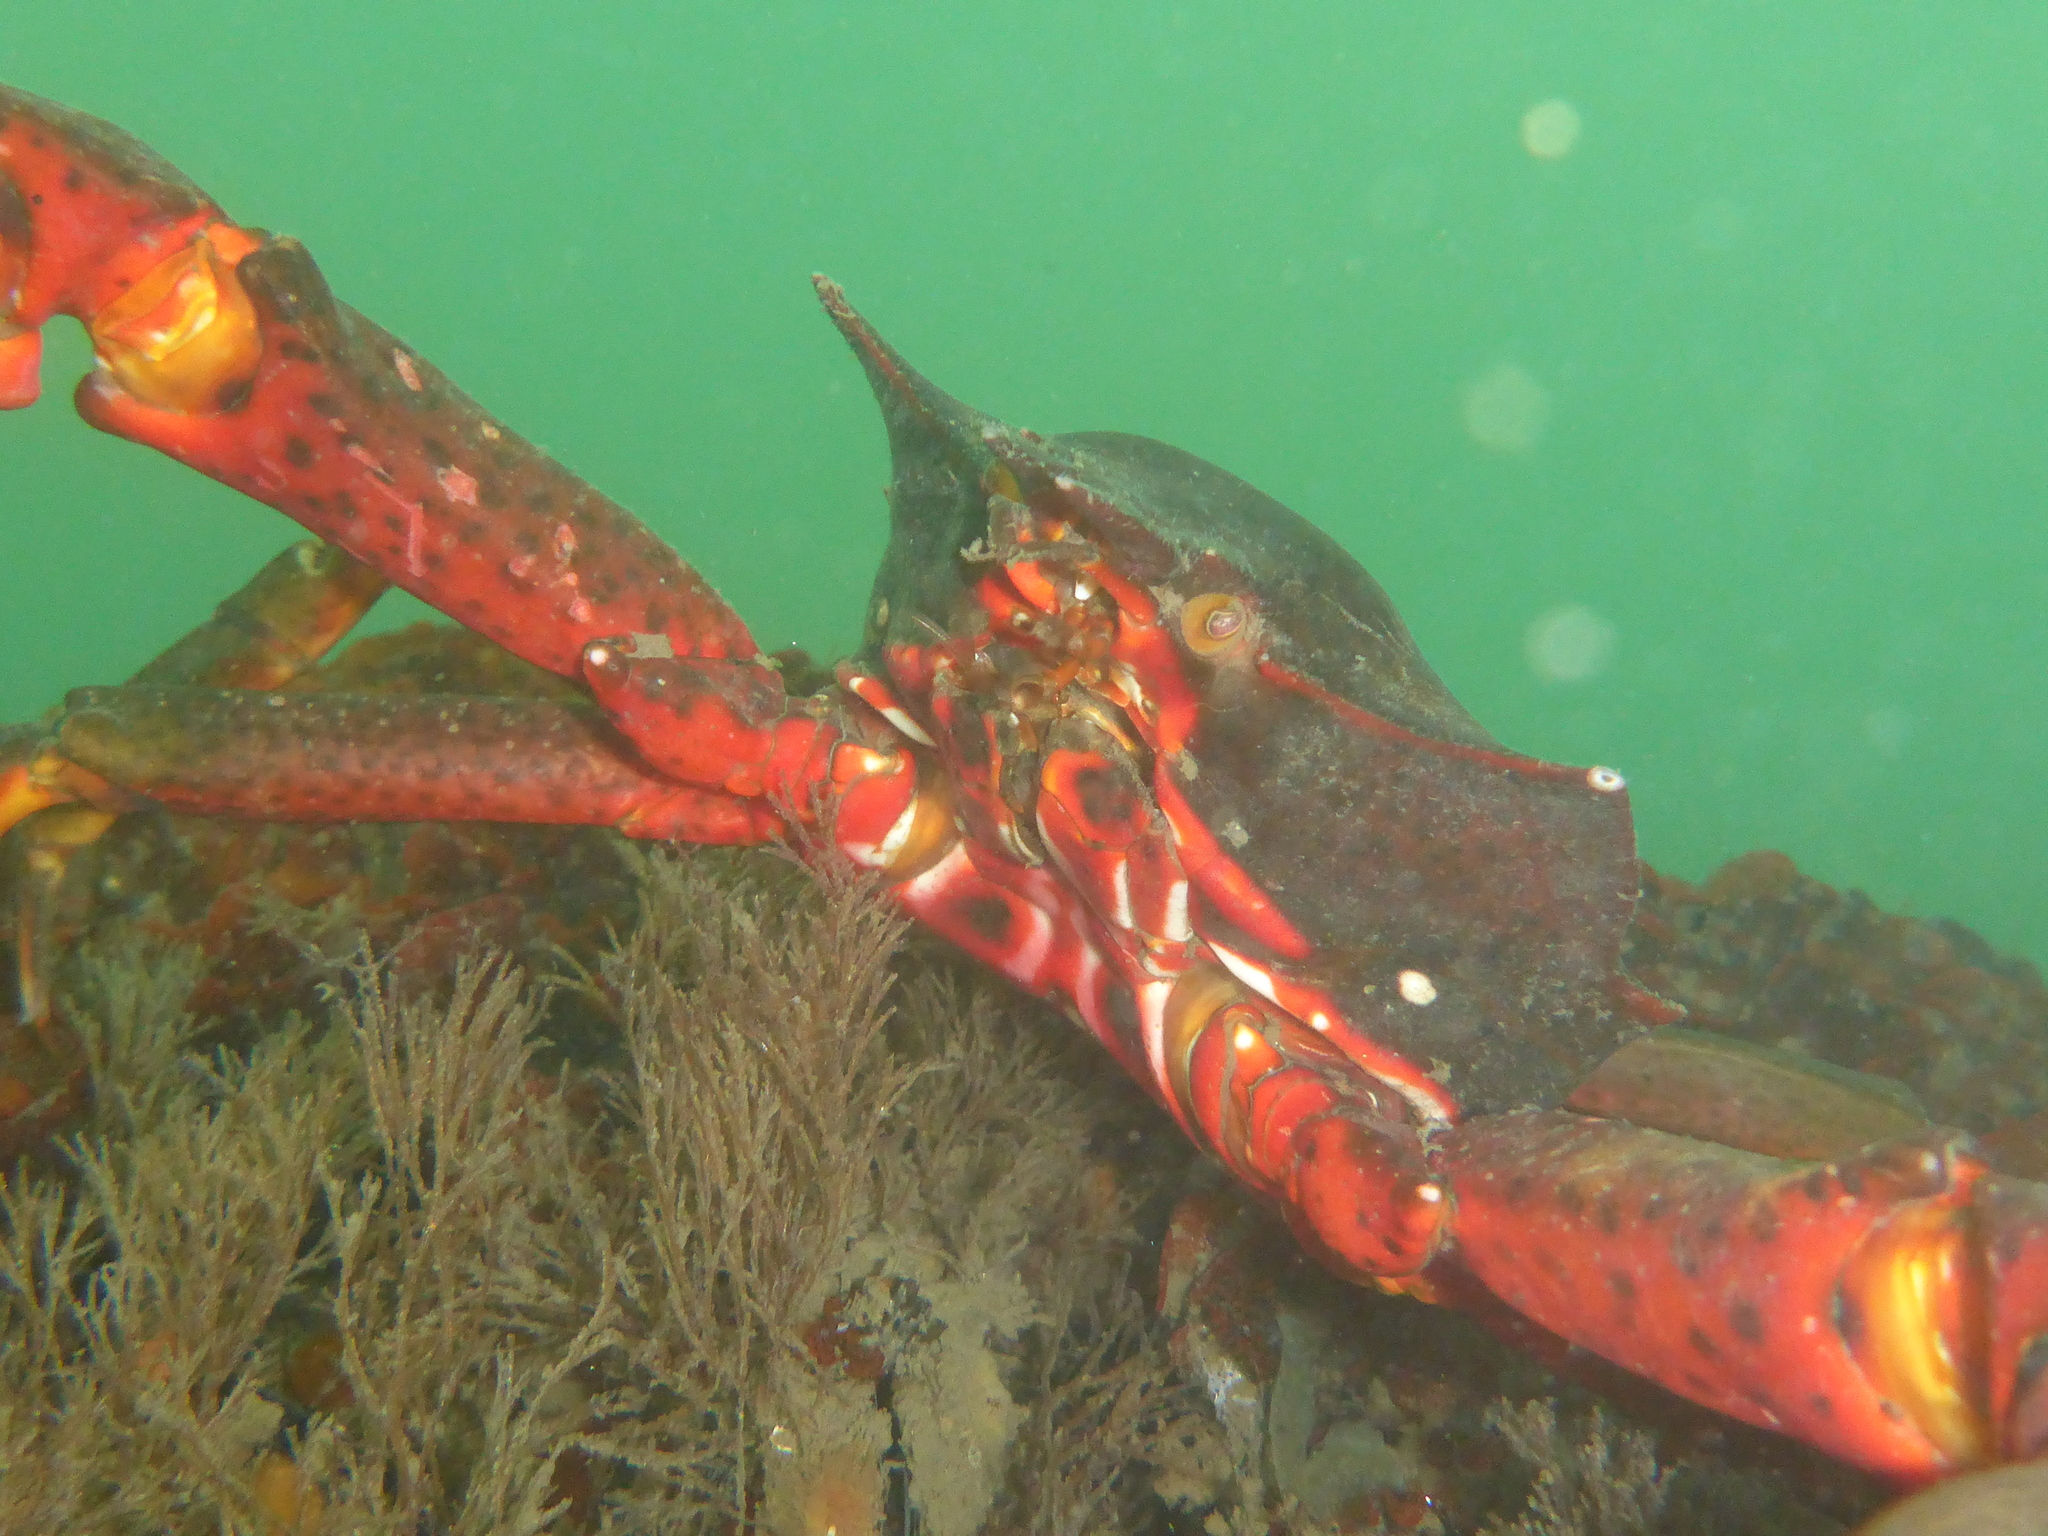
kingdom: Animalia
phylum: Arthropoda
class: Malacostraca
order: Decapoda
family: Epialtidae
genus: Pugettia
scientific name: Pugettia producta
